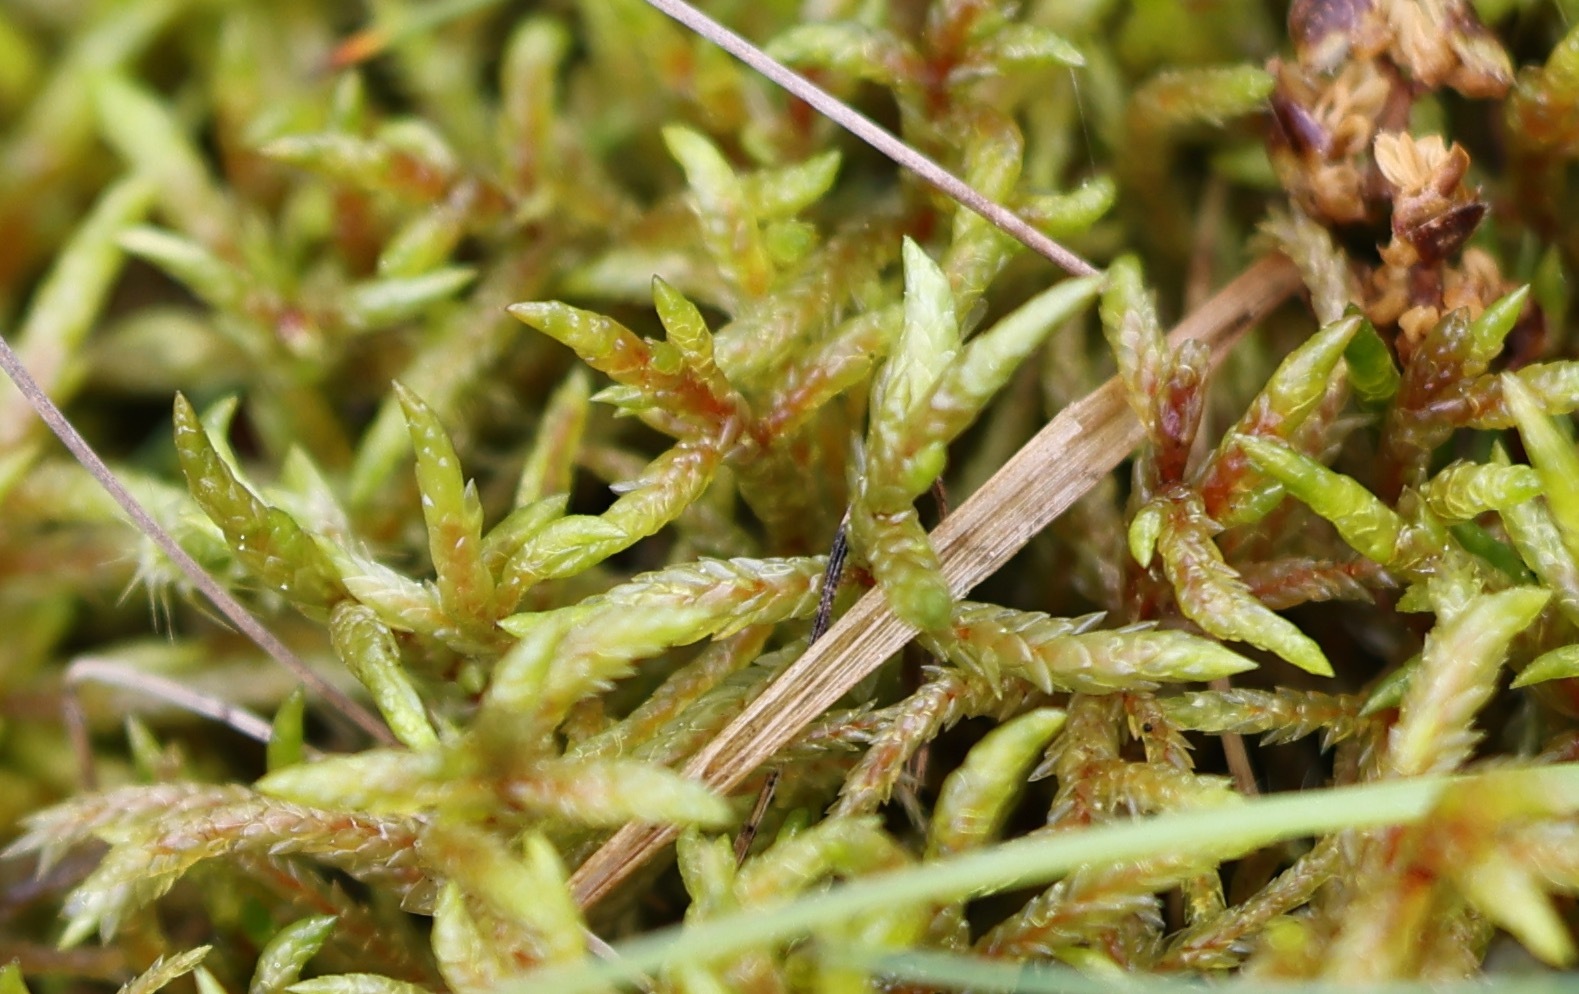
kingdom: Plantae
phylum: Bryophyta
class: Bryopsida
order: Hypnales
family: Hylocomiaceae
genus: Pleurozium
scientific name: Pleurozium schreberi
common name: Red-stemmed feather moss
